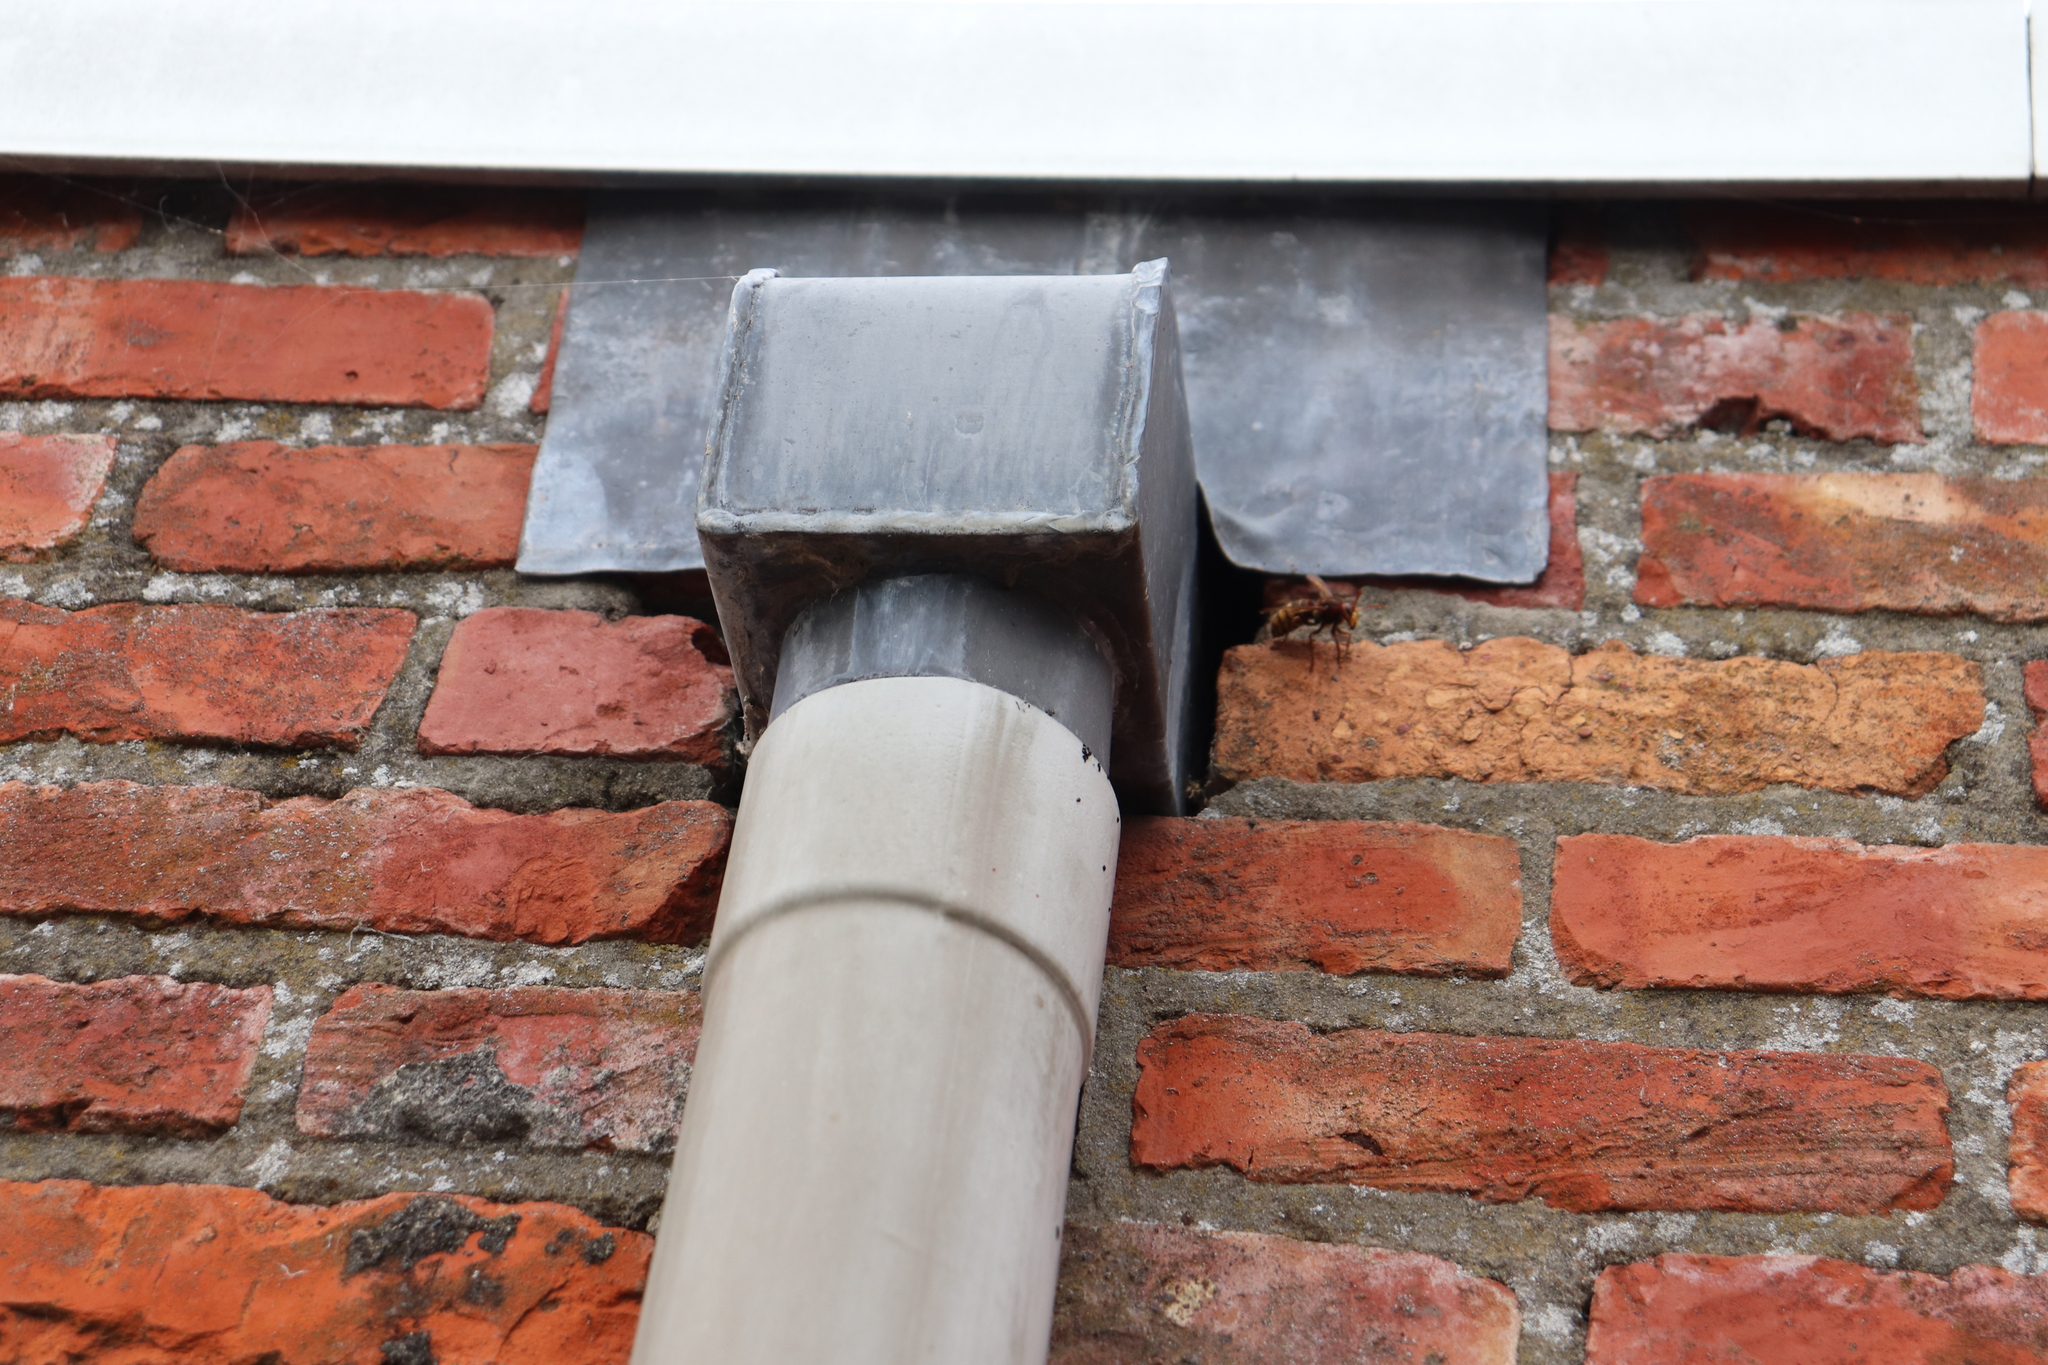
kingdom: Animalia
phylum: Arthropoda
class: Insecta
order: Hymenoptera
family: Vespidae
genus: Vespa
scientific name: Vespa crabro
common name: Hornet
